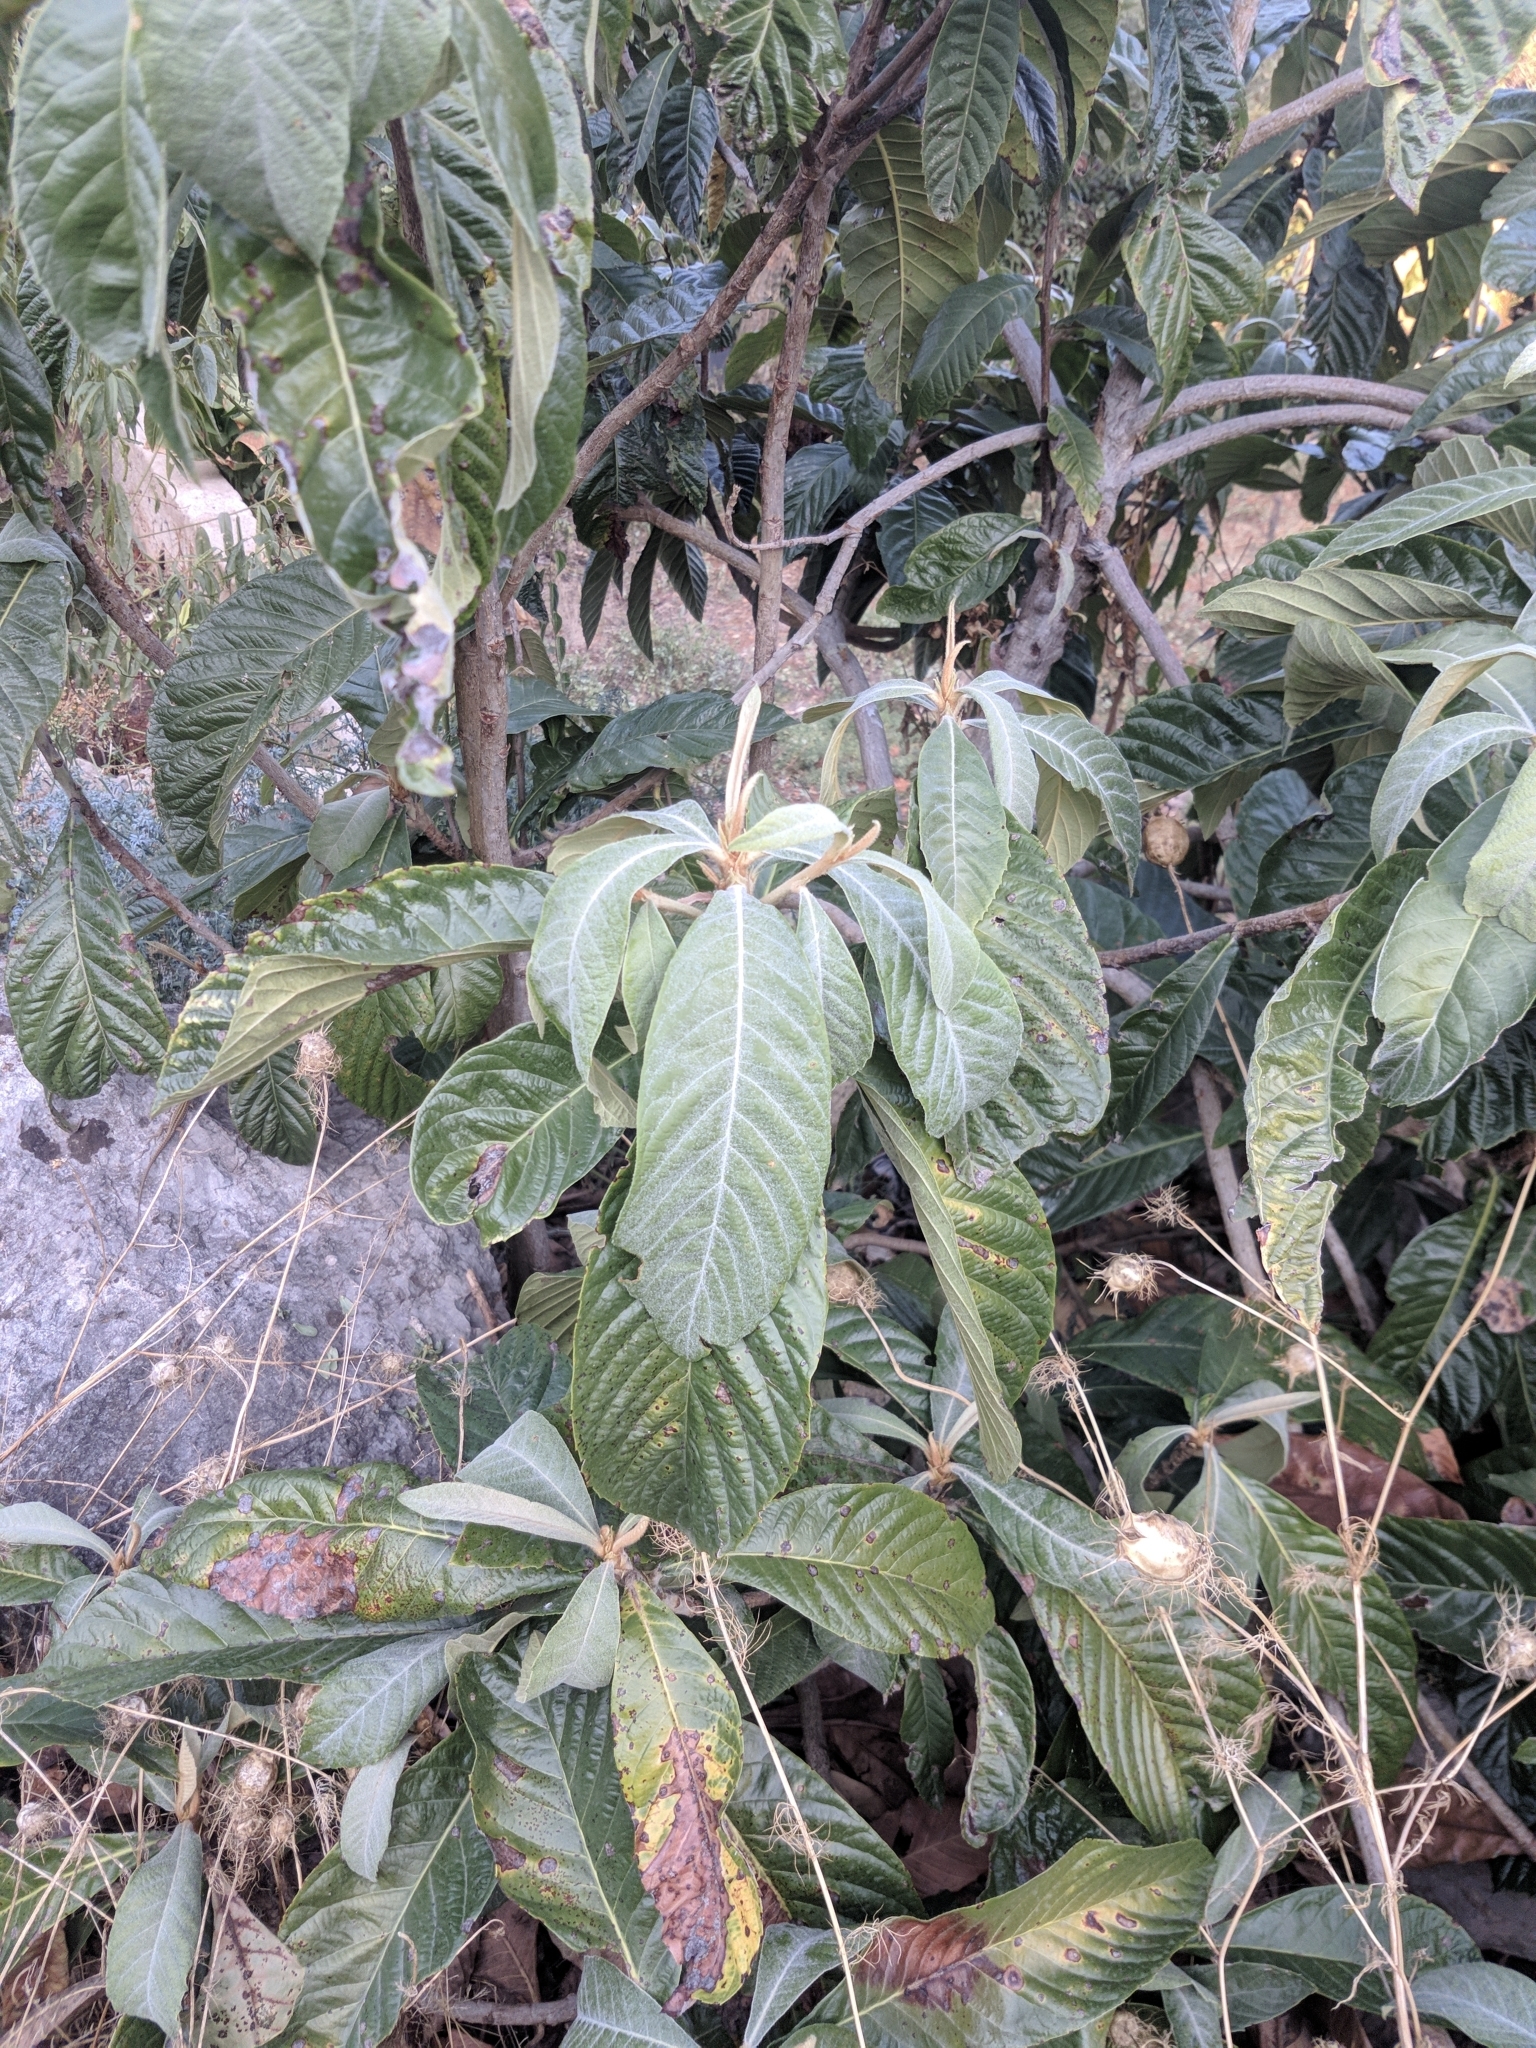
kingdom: Plantae
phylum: Tracheophyta
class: Magnoliopsida
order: Rosales
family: Rosaceae
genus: Rhaphiolepis
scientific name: Rhaphiolepis bibas
